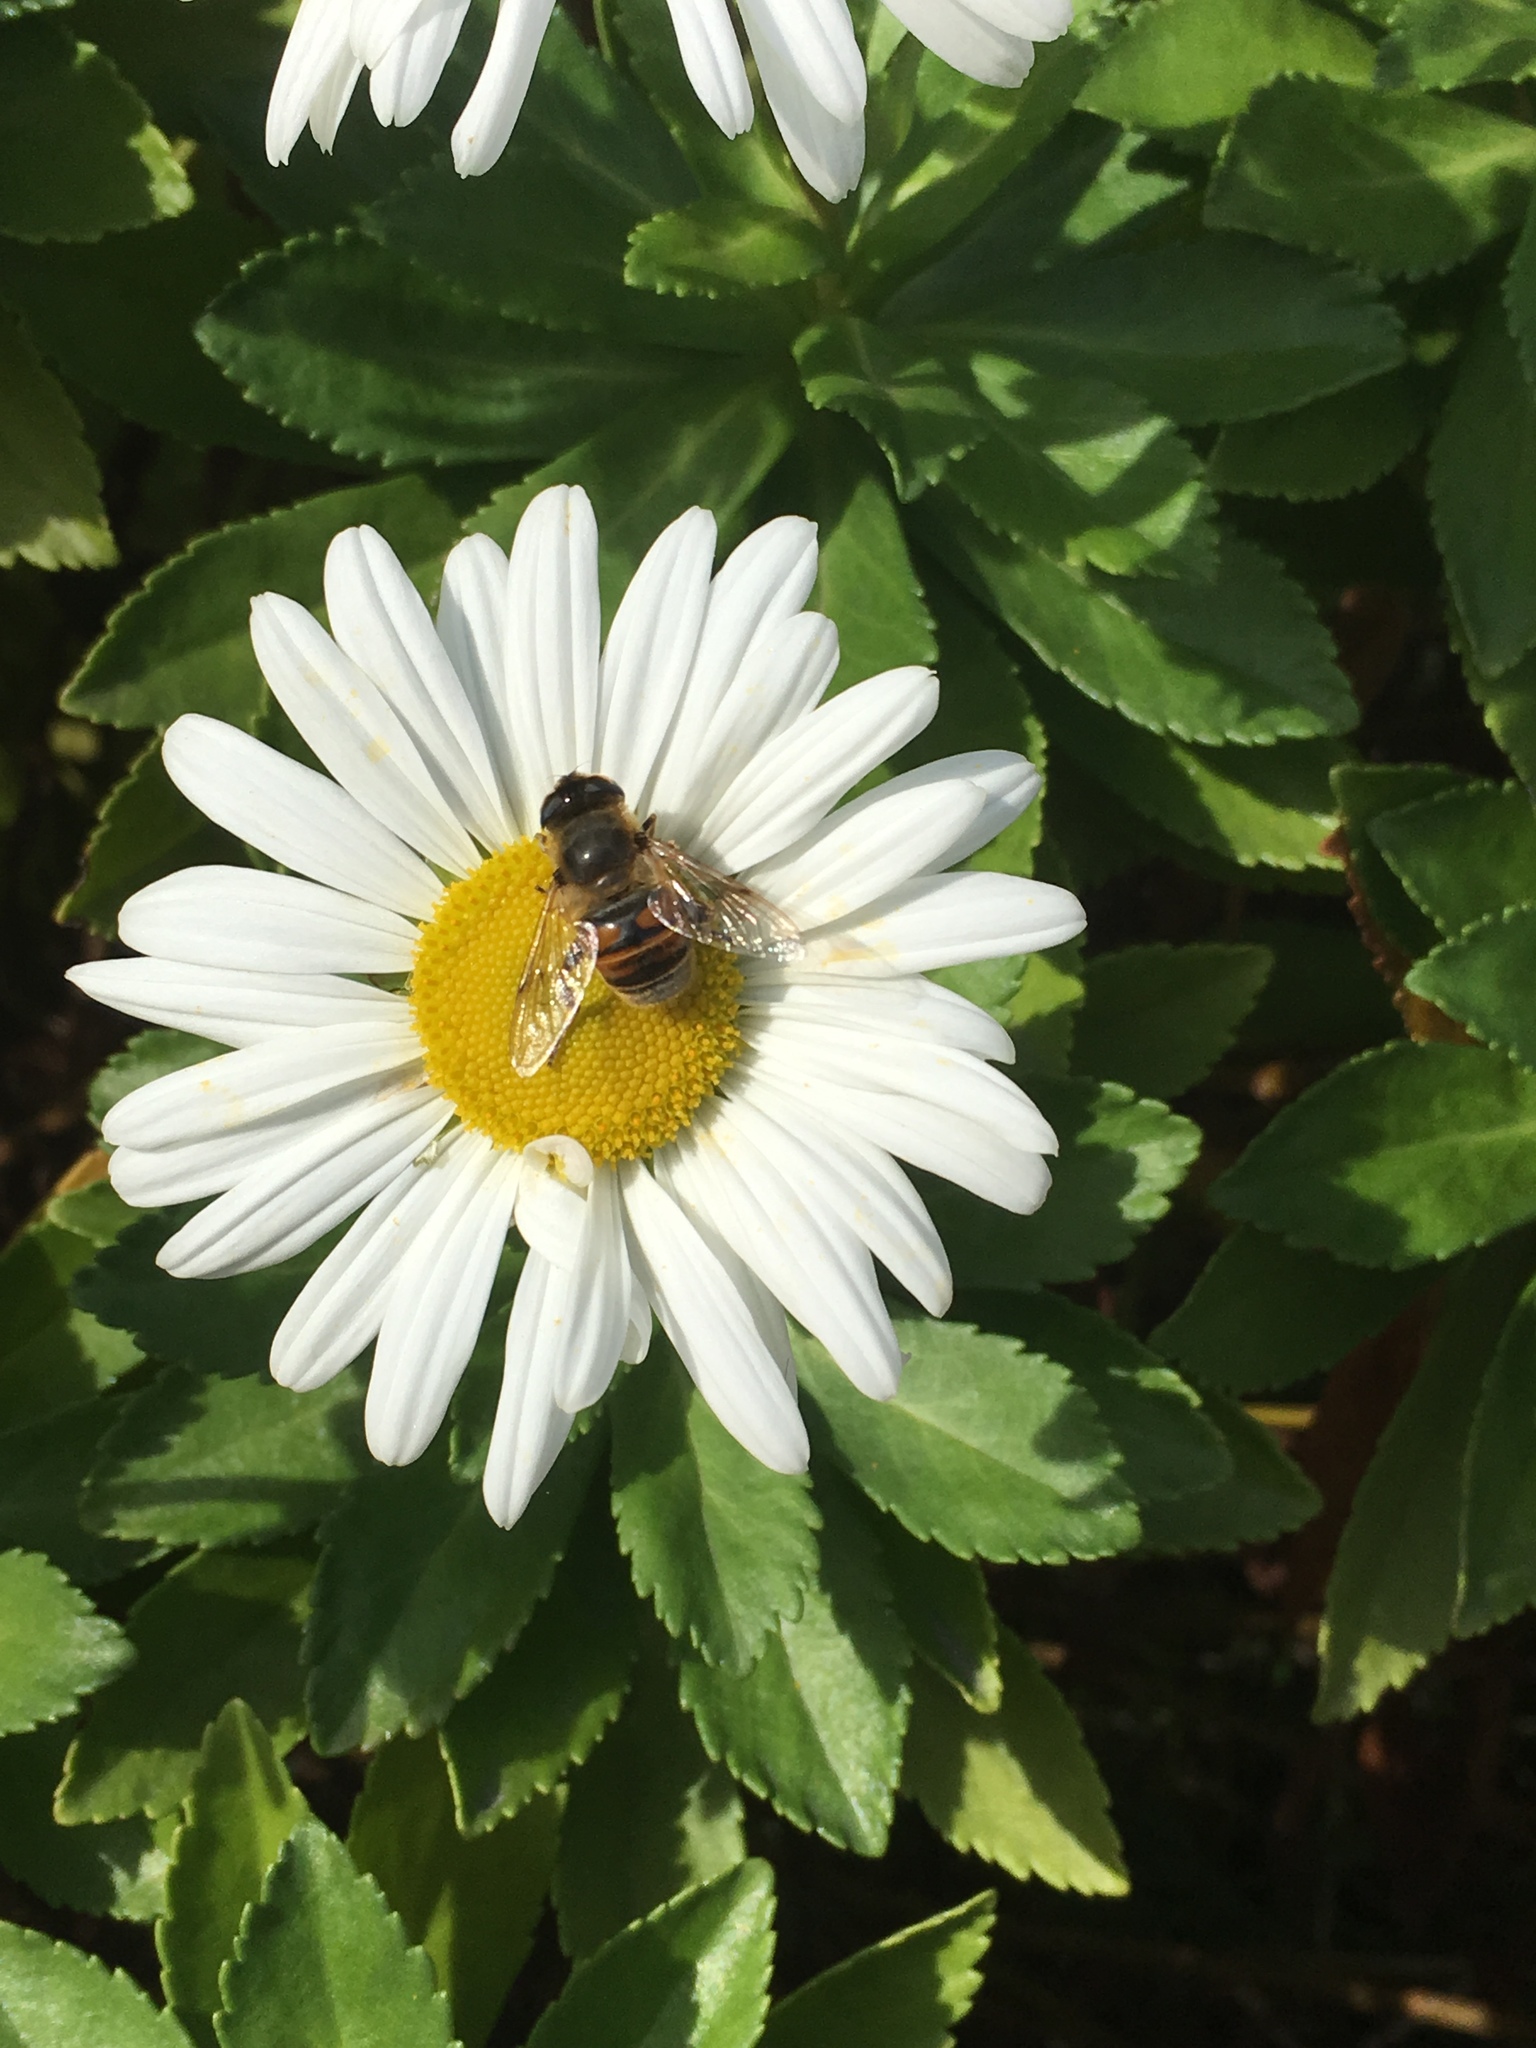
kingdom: Animalia
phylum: Arthropoda
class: Insecta
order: Diptera
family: Syrphidae
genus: Eristalis
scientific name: Eristalis tenax
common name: Drone fly
